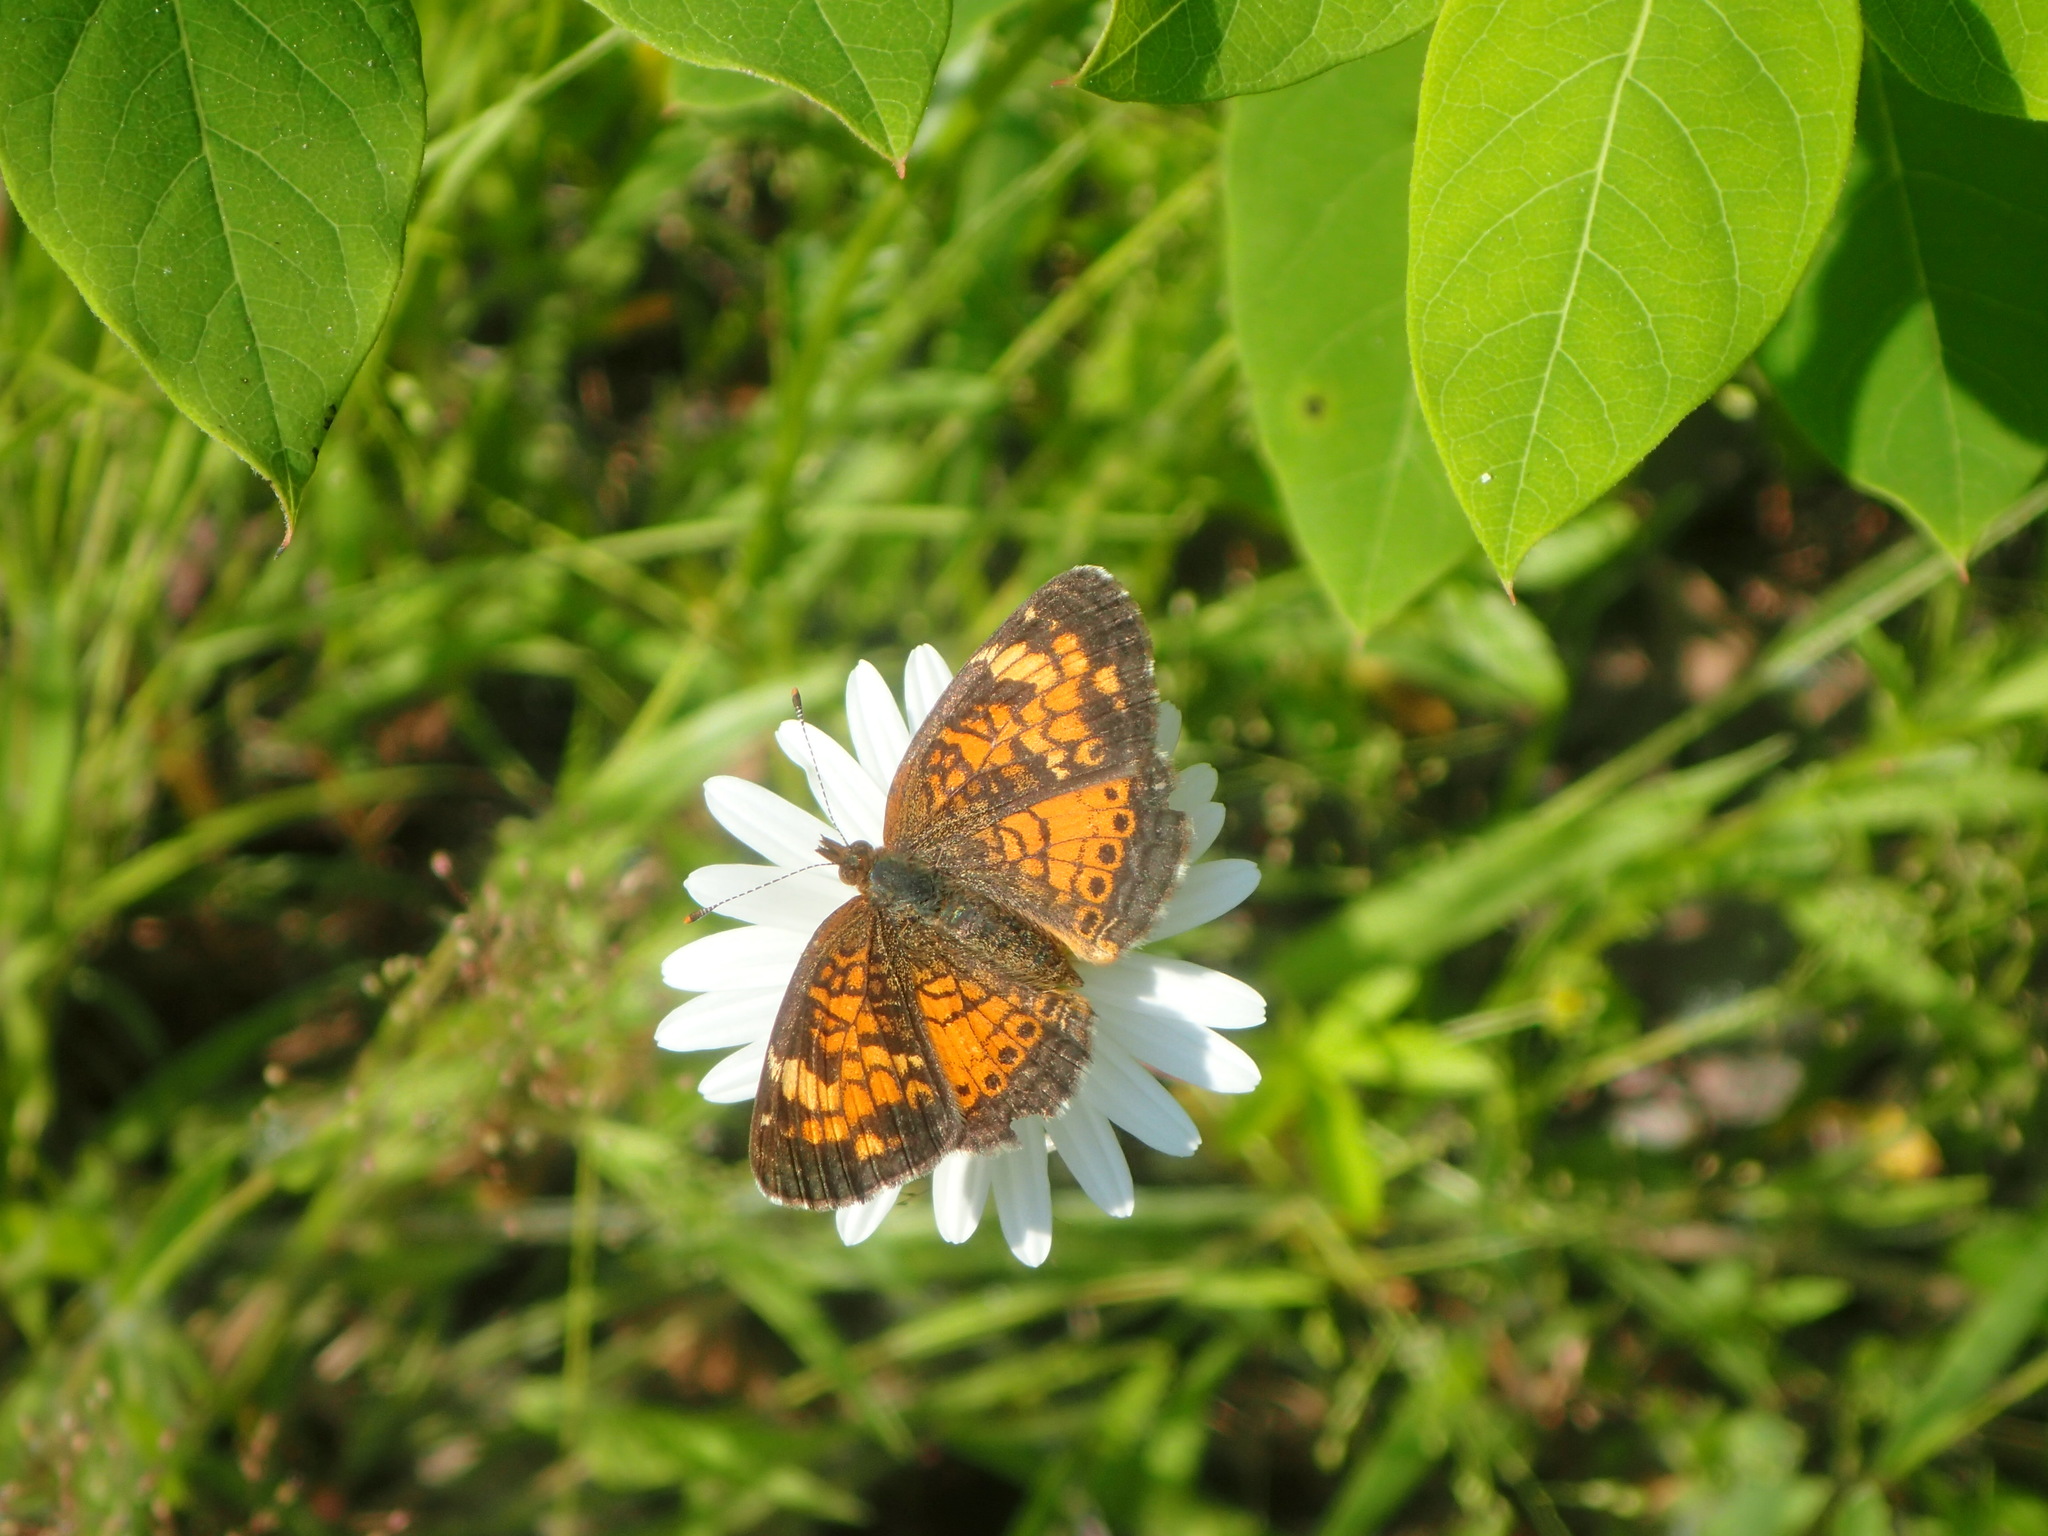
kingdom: Animalia
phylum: Arthropoda
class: Insecta
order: Lepidoptera
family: Nymphalidae
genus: Phyciodes
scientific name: Phyciodes tharos
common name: Pearl crescent
